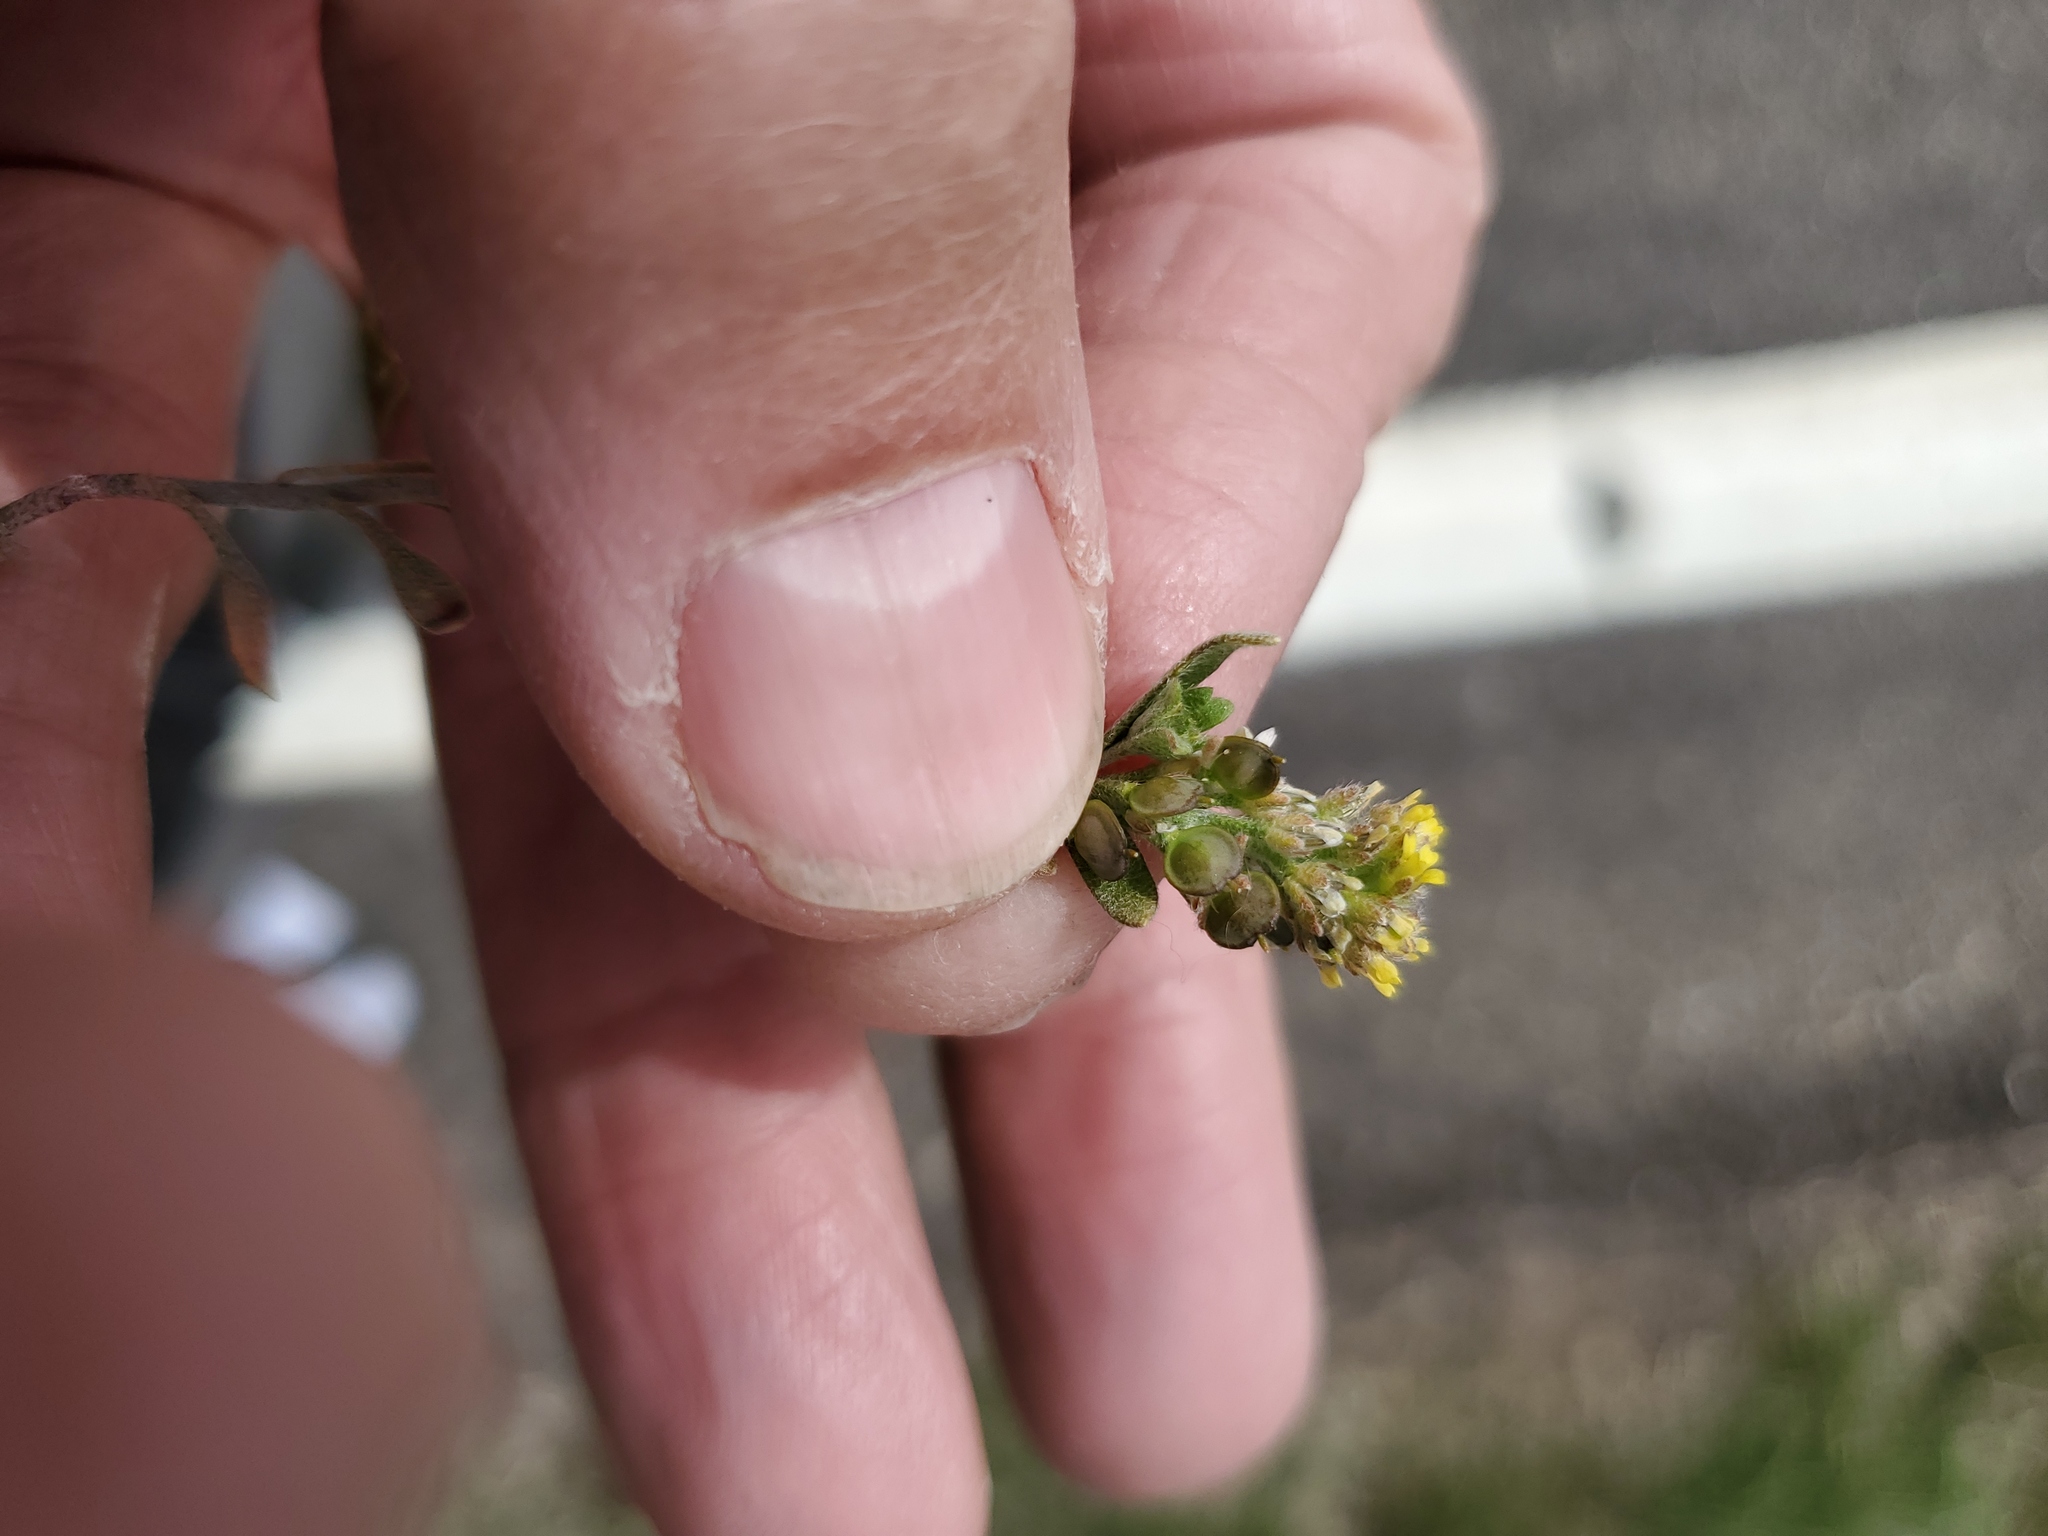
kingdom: Plantae
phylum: Tracheophyta
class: Magnoliopsida
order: Brassicales
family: Brassicaceae
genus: Alyssum
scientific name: Alyssum turkestanicum
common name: Desert alyssum
